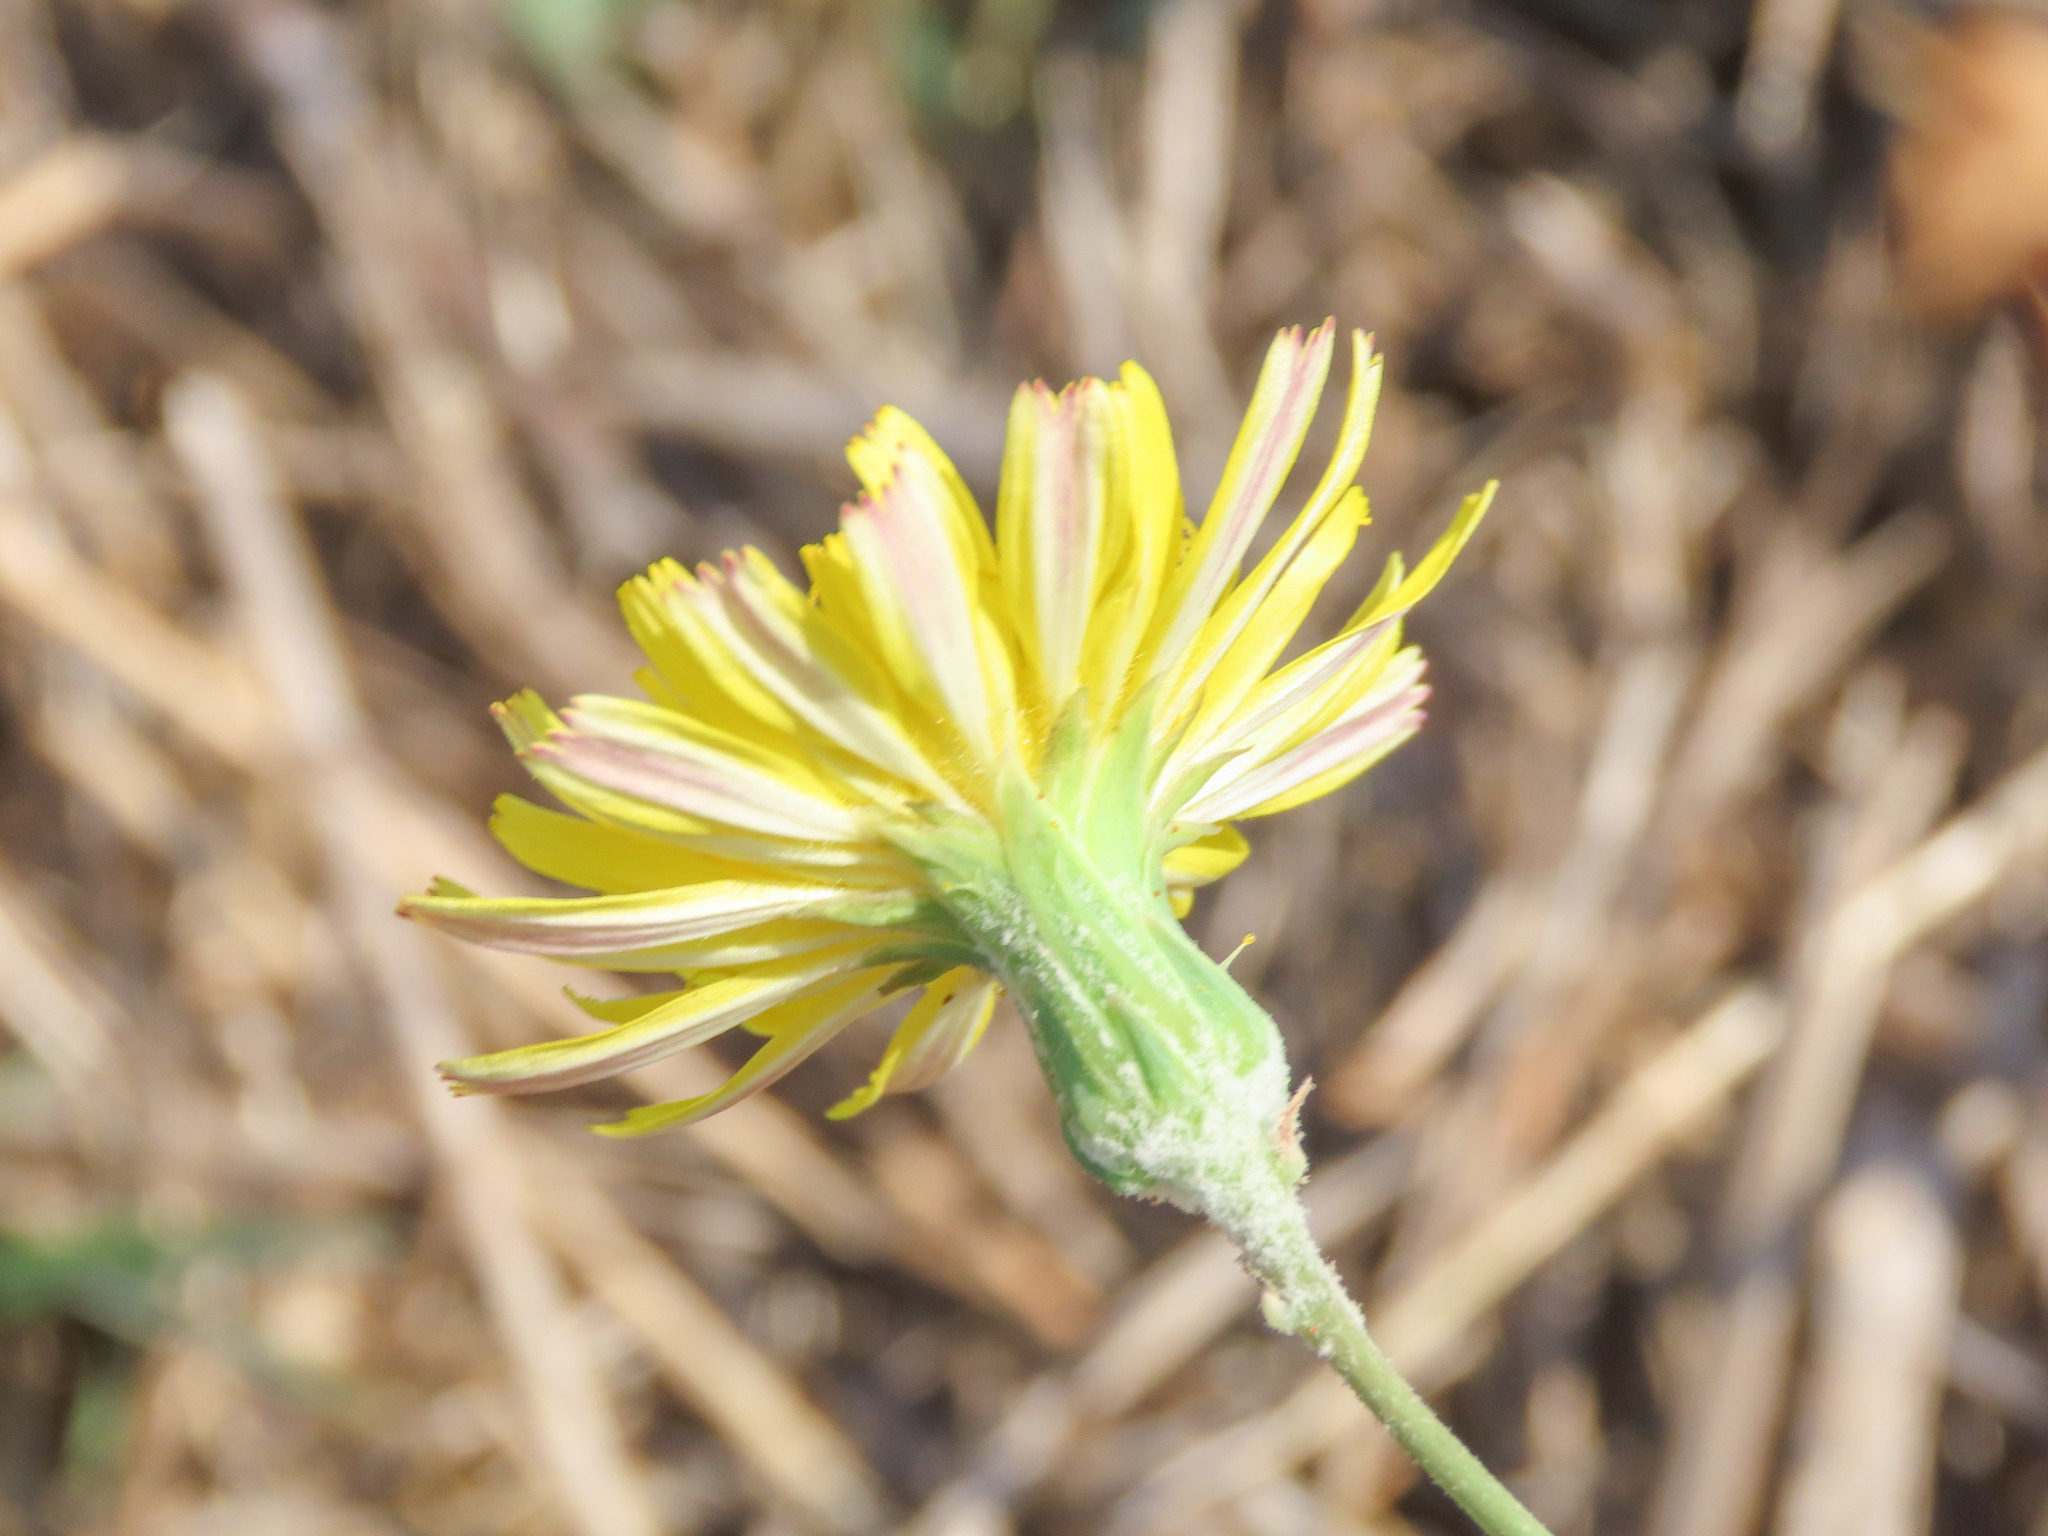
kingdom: Plantae
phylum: Tracheophyta
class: Magnoliopsida
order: Asterales
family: Asteraceae
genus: Sonchus
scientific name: Sonchus tenerrimus
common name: Clammy sowthistle
